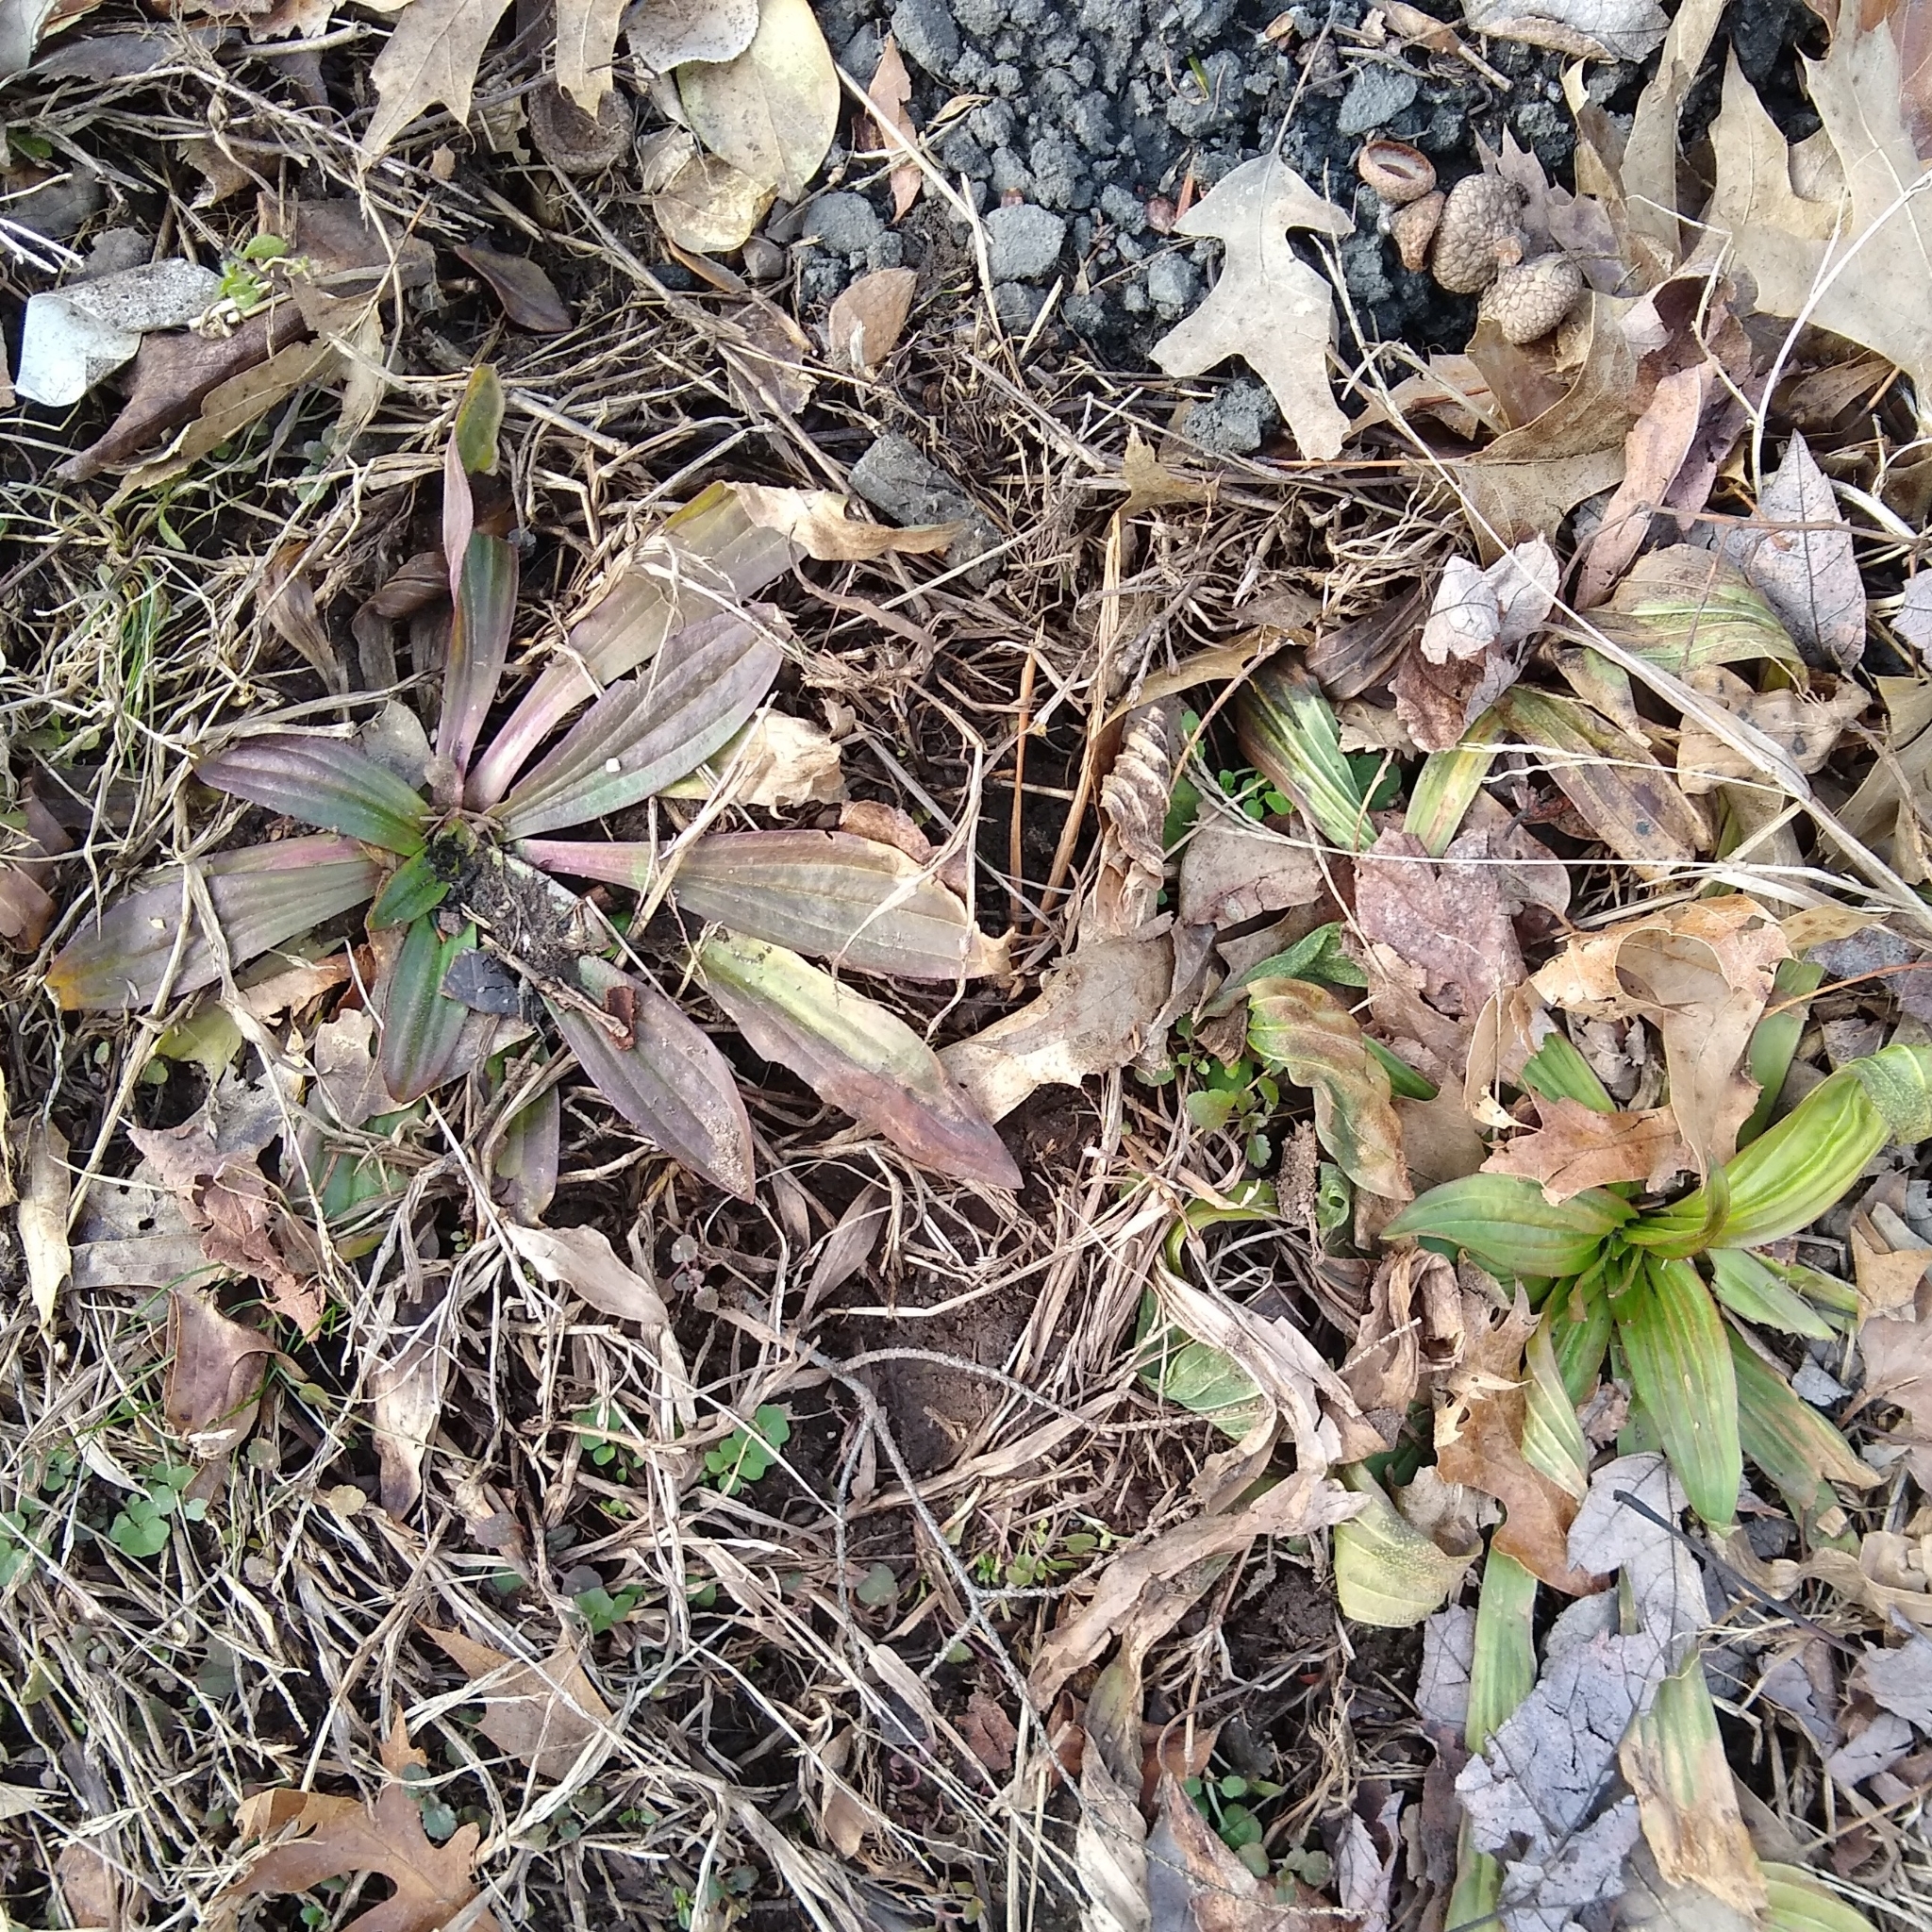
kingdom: Plantae
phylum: Tracheophyta
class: Magnoliopsida
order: Lamiales
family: Plantaginaceae
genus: Plantago
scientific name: Plantago lanceolata
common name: Ribwort plantain
